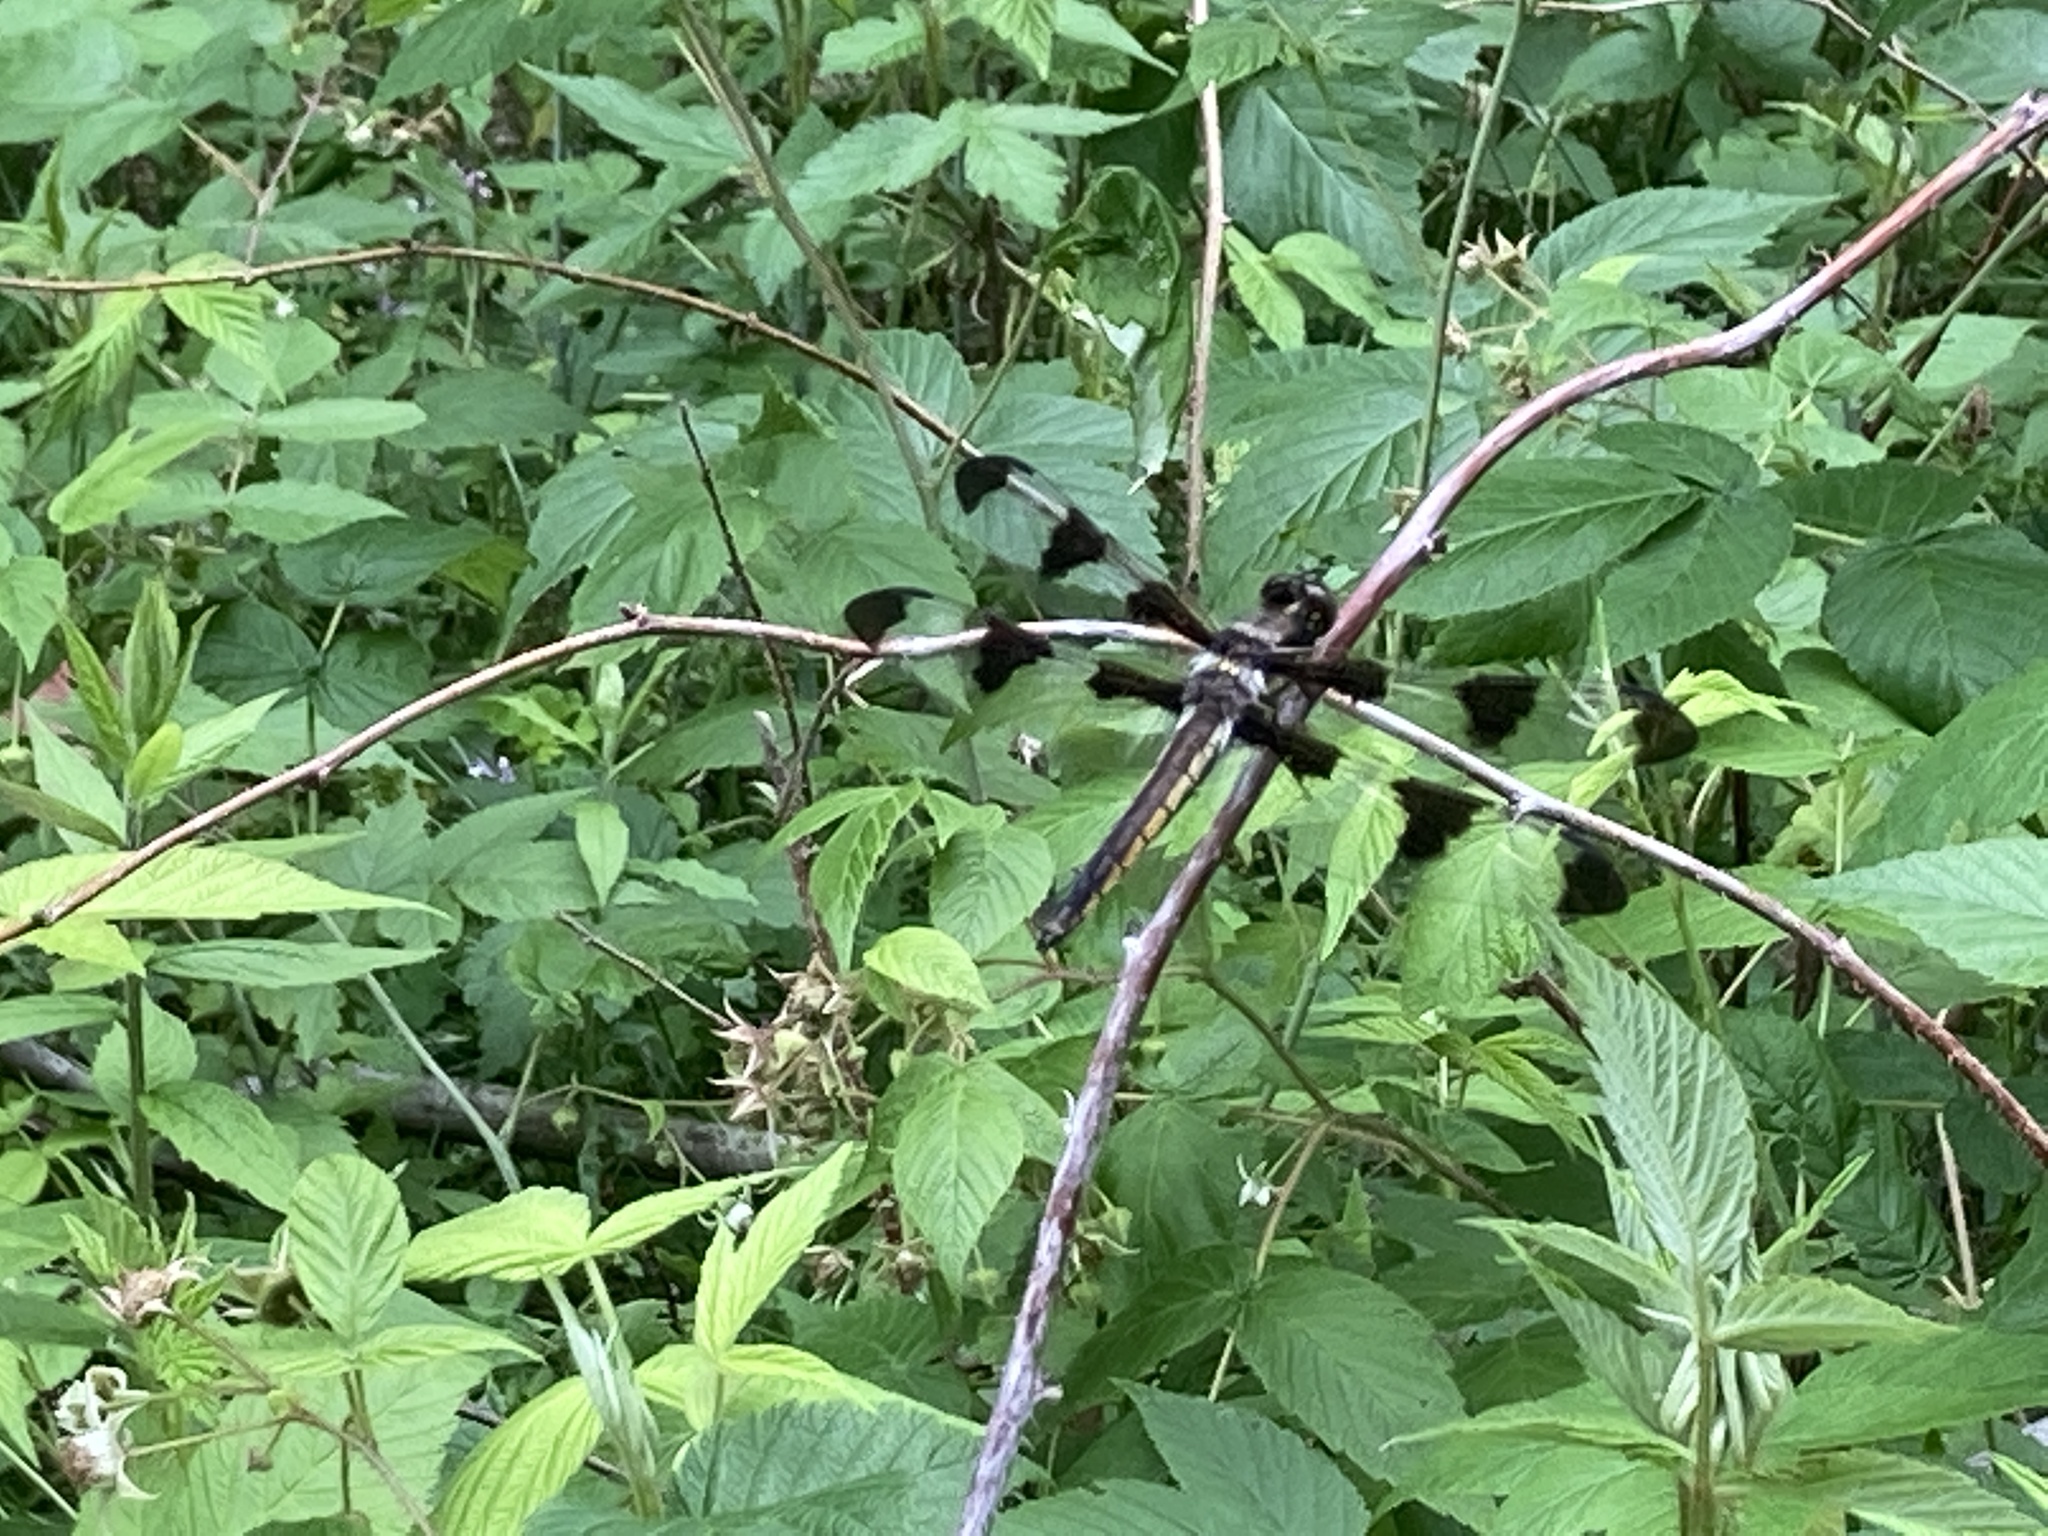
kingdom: Animalia
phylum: Arthropoda
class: Insecta
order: Odonata
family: Libellulidae
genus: Libellula
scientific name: Libellula pulchella
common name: Twelve-spotted skimmer
